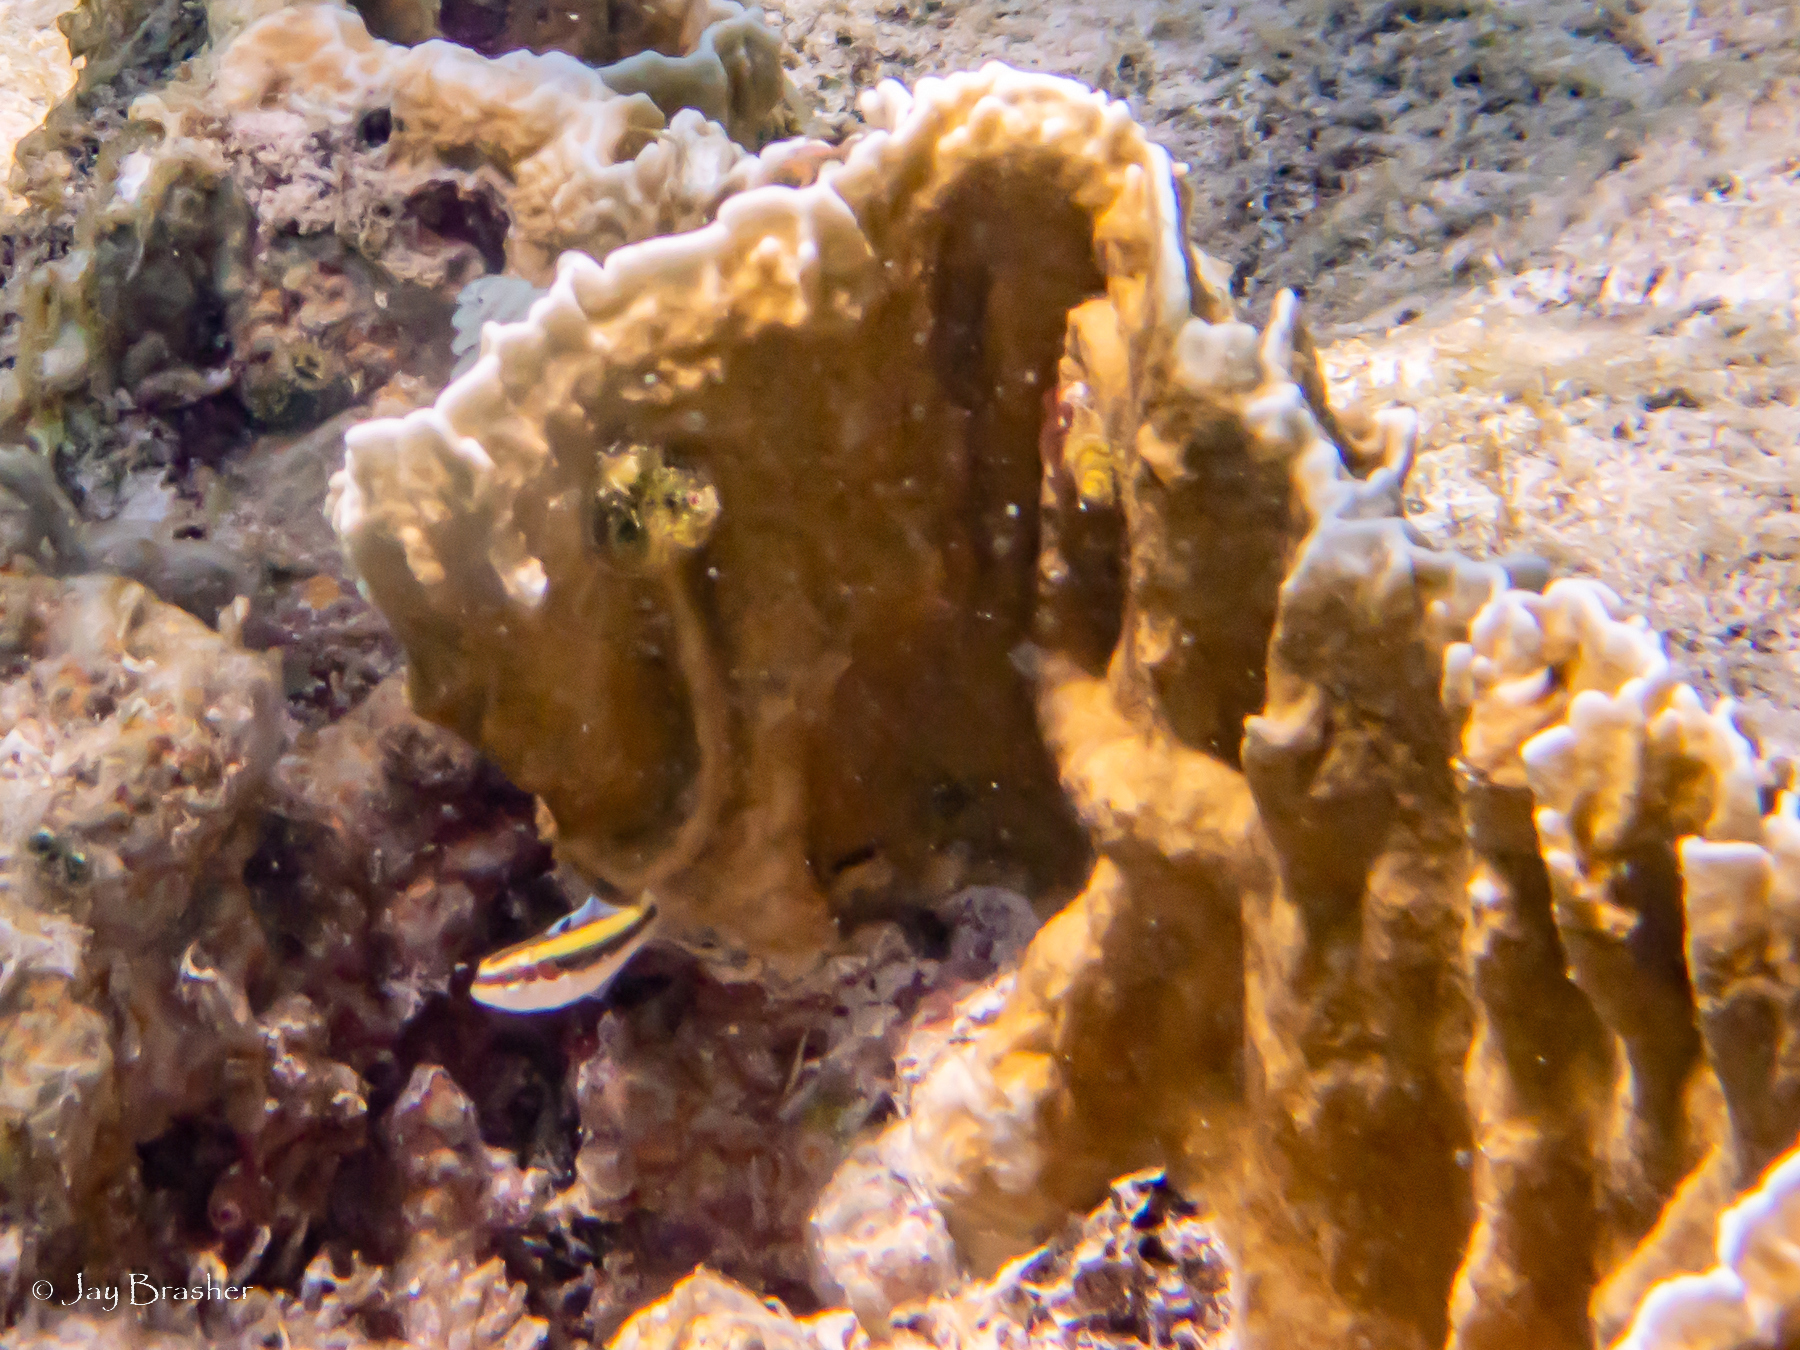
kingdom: Animalia
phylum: Chordata
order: Perciformes
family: Labridae
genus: Thalassoma
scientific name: Thalassoma bifasciatum
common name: Bluehead wrasse
